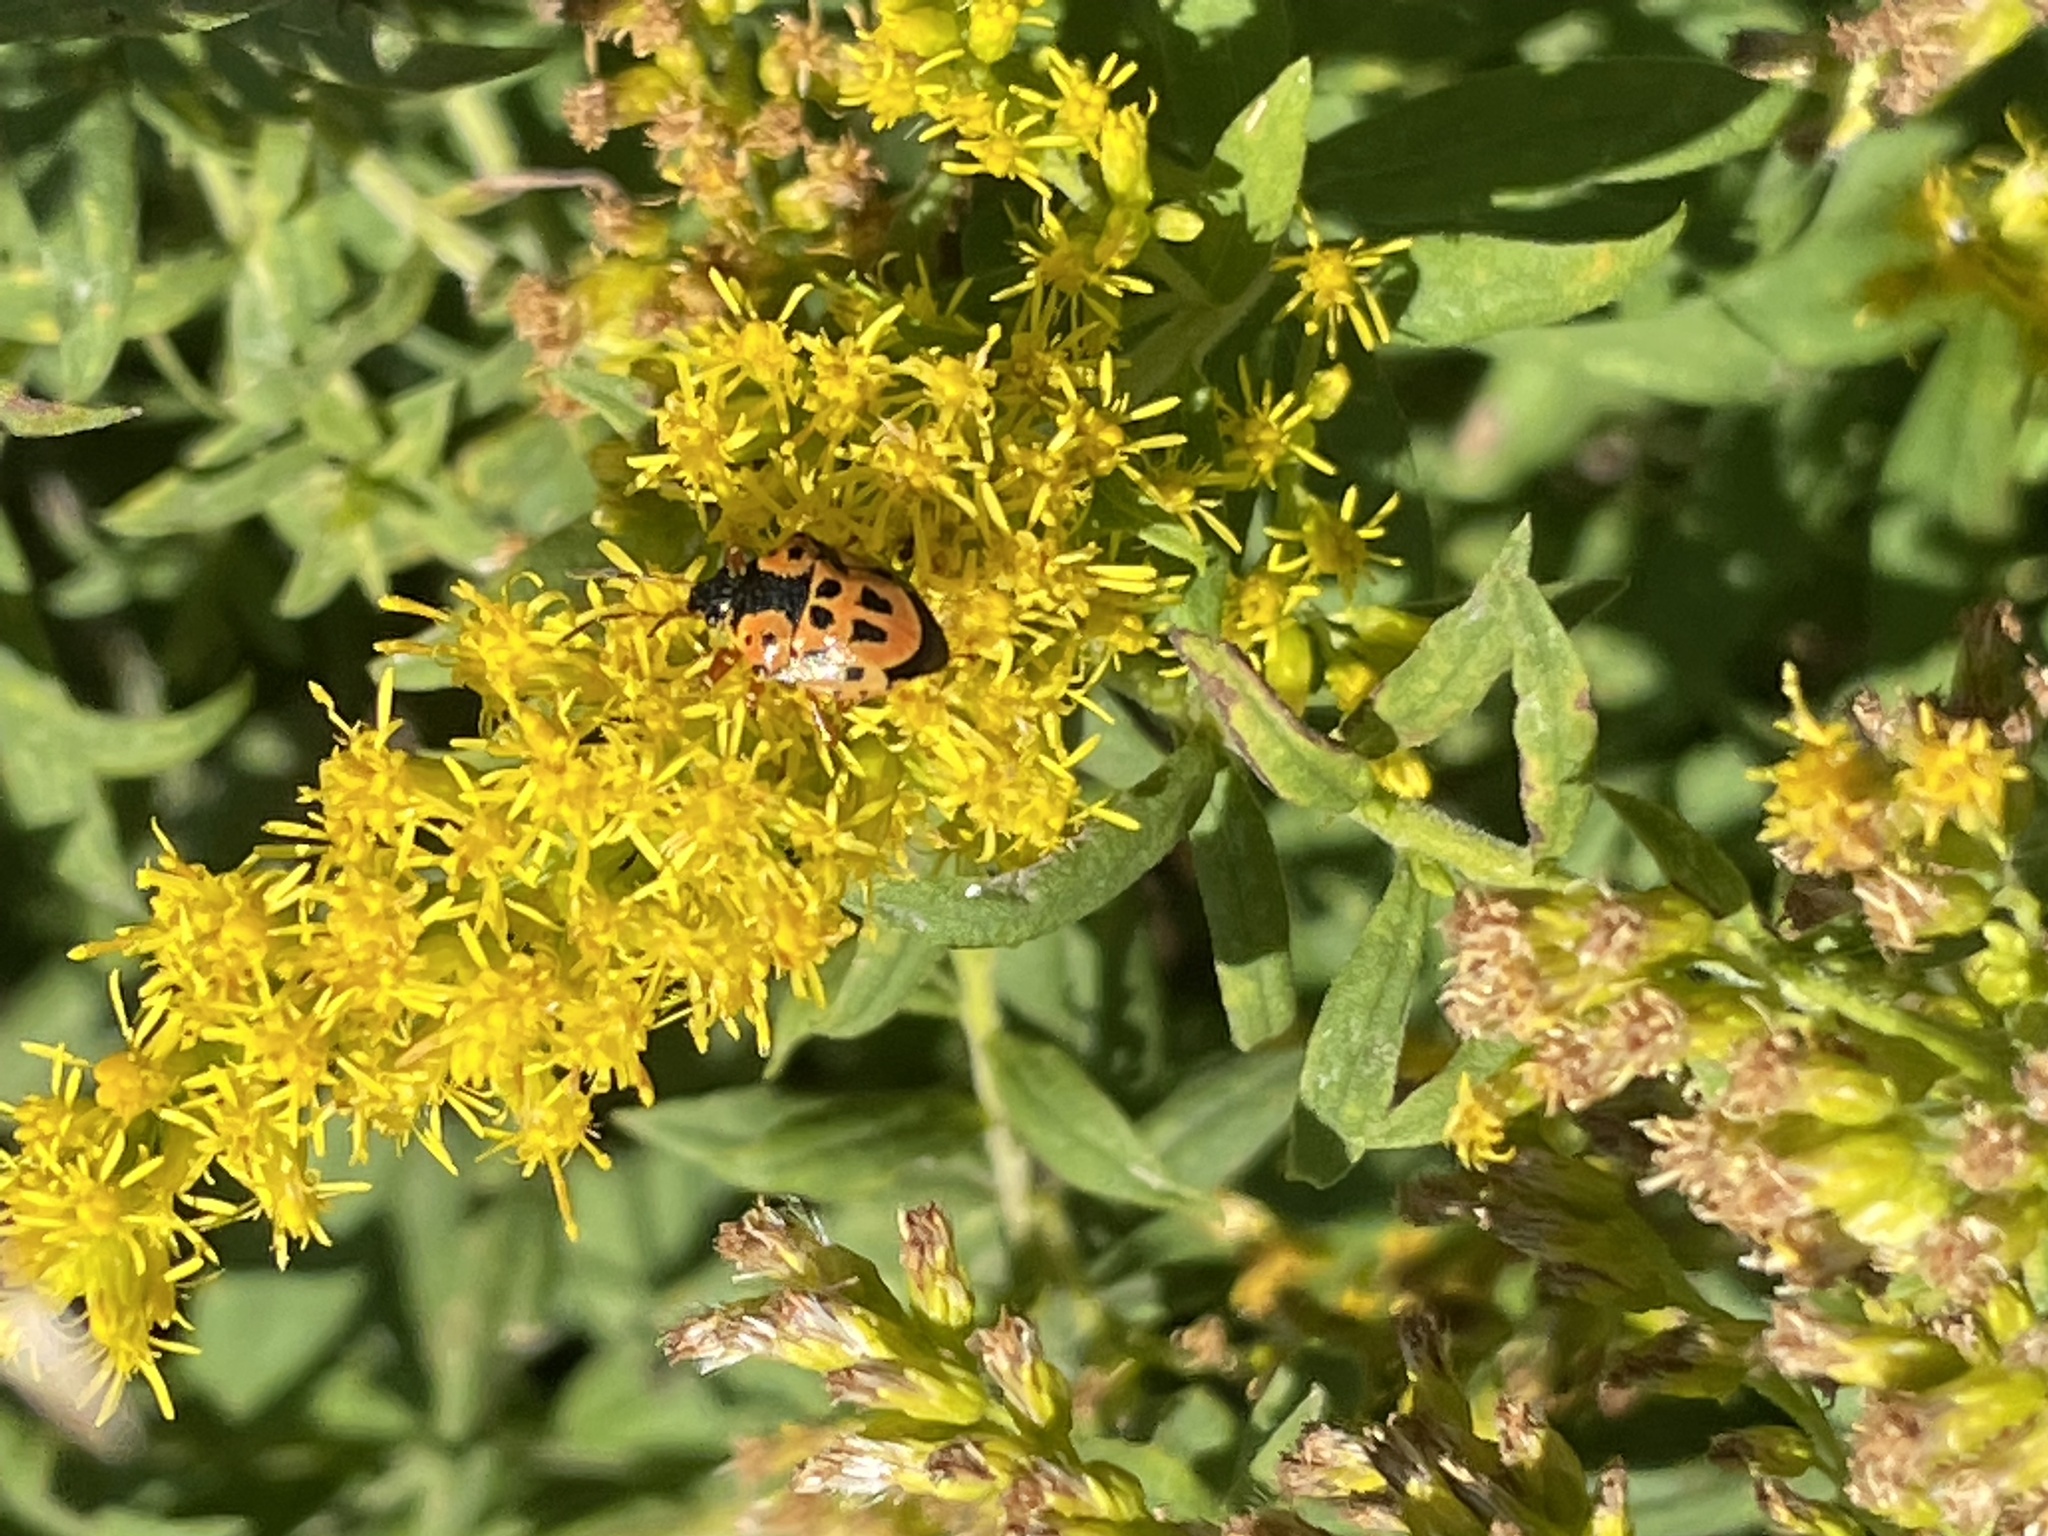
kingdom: Animalia
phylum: Arthropoda
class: Insecta
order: Hemiptera
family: Pentatomidae
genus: Stiretrus
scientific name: Stiretrus anchorago
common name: Anchor stink bug
